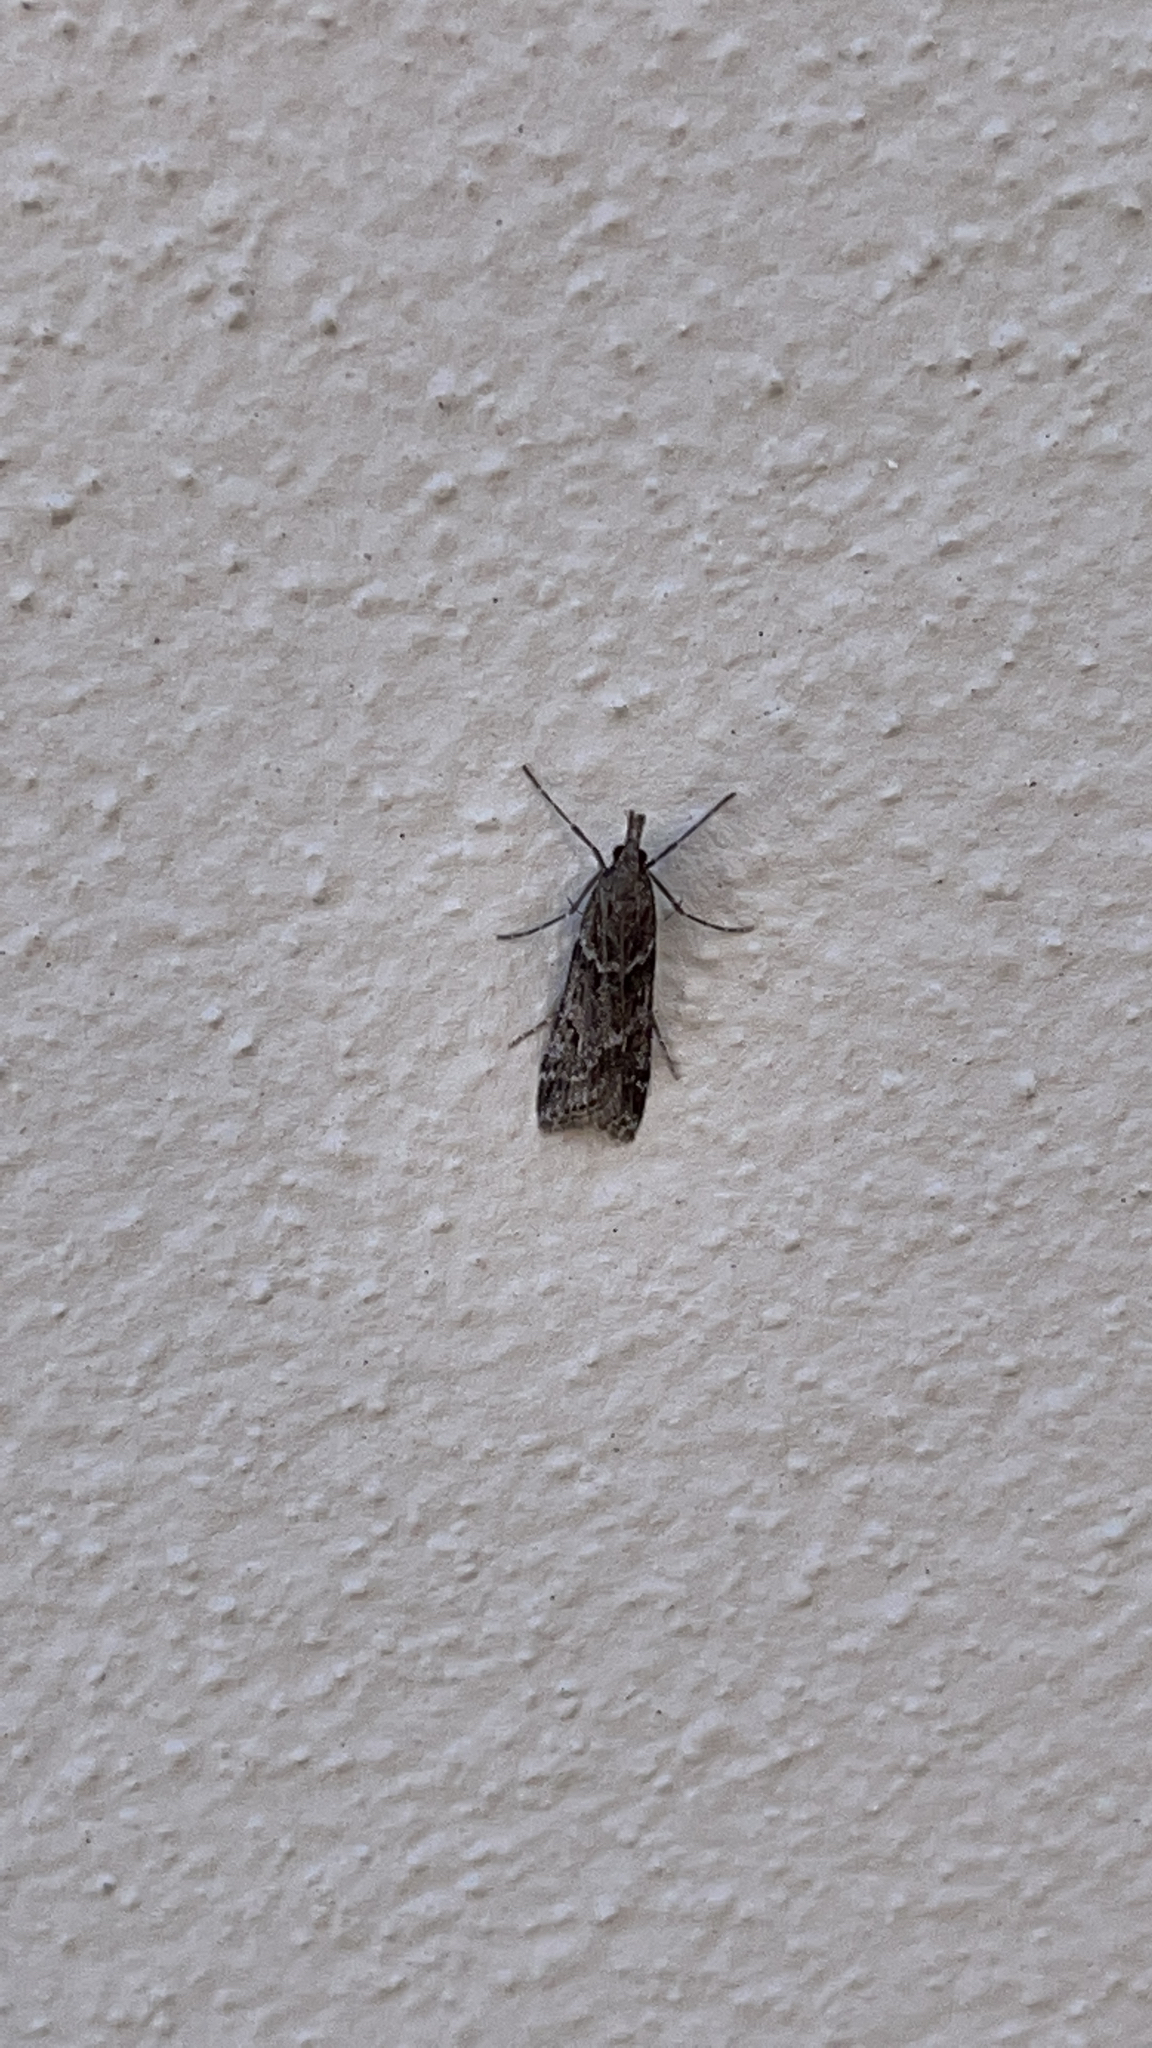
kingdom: Animalia
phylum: Arthropoda
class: Insecta
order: Lepidoptera
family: Crambidae
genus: Eudonia
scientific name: Eudonia angustea
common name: Narrow-winged grey
